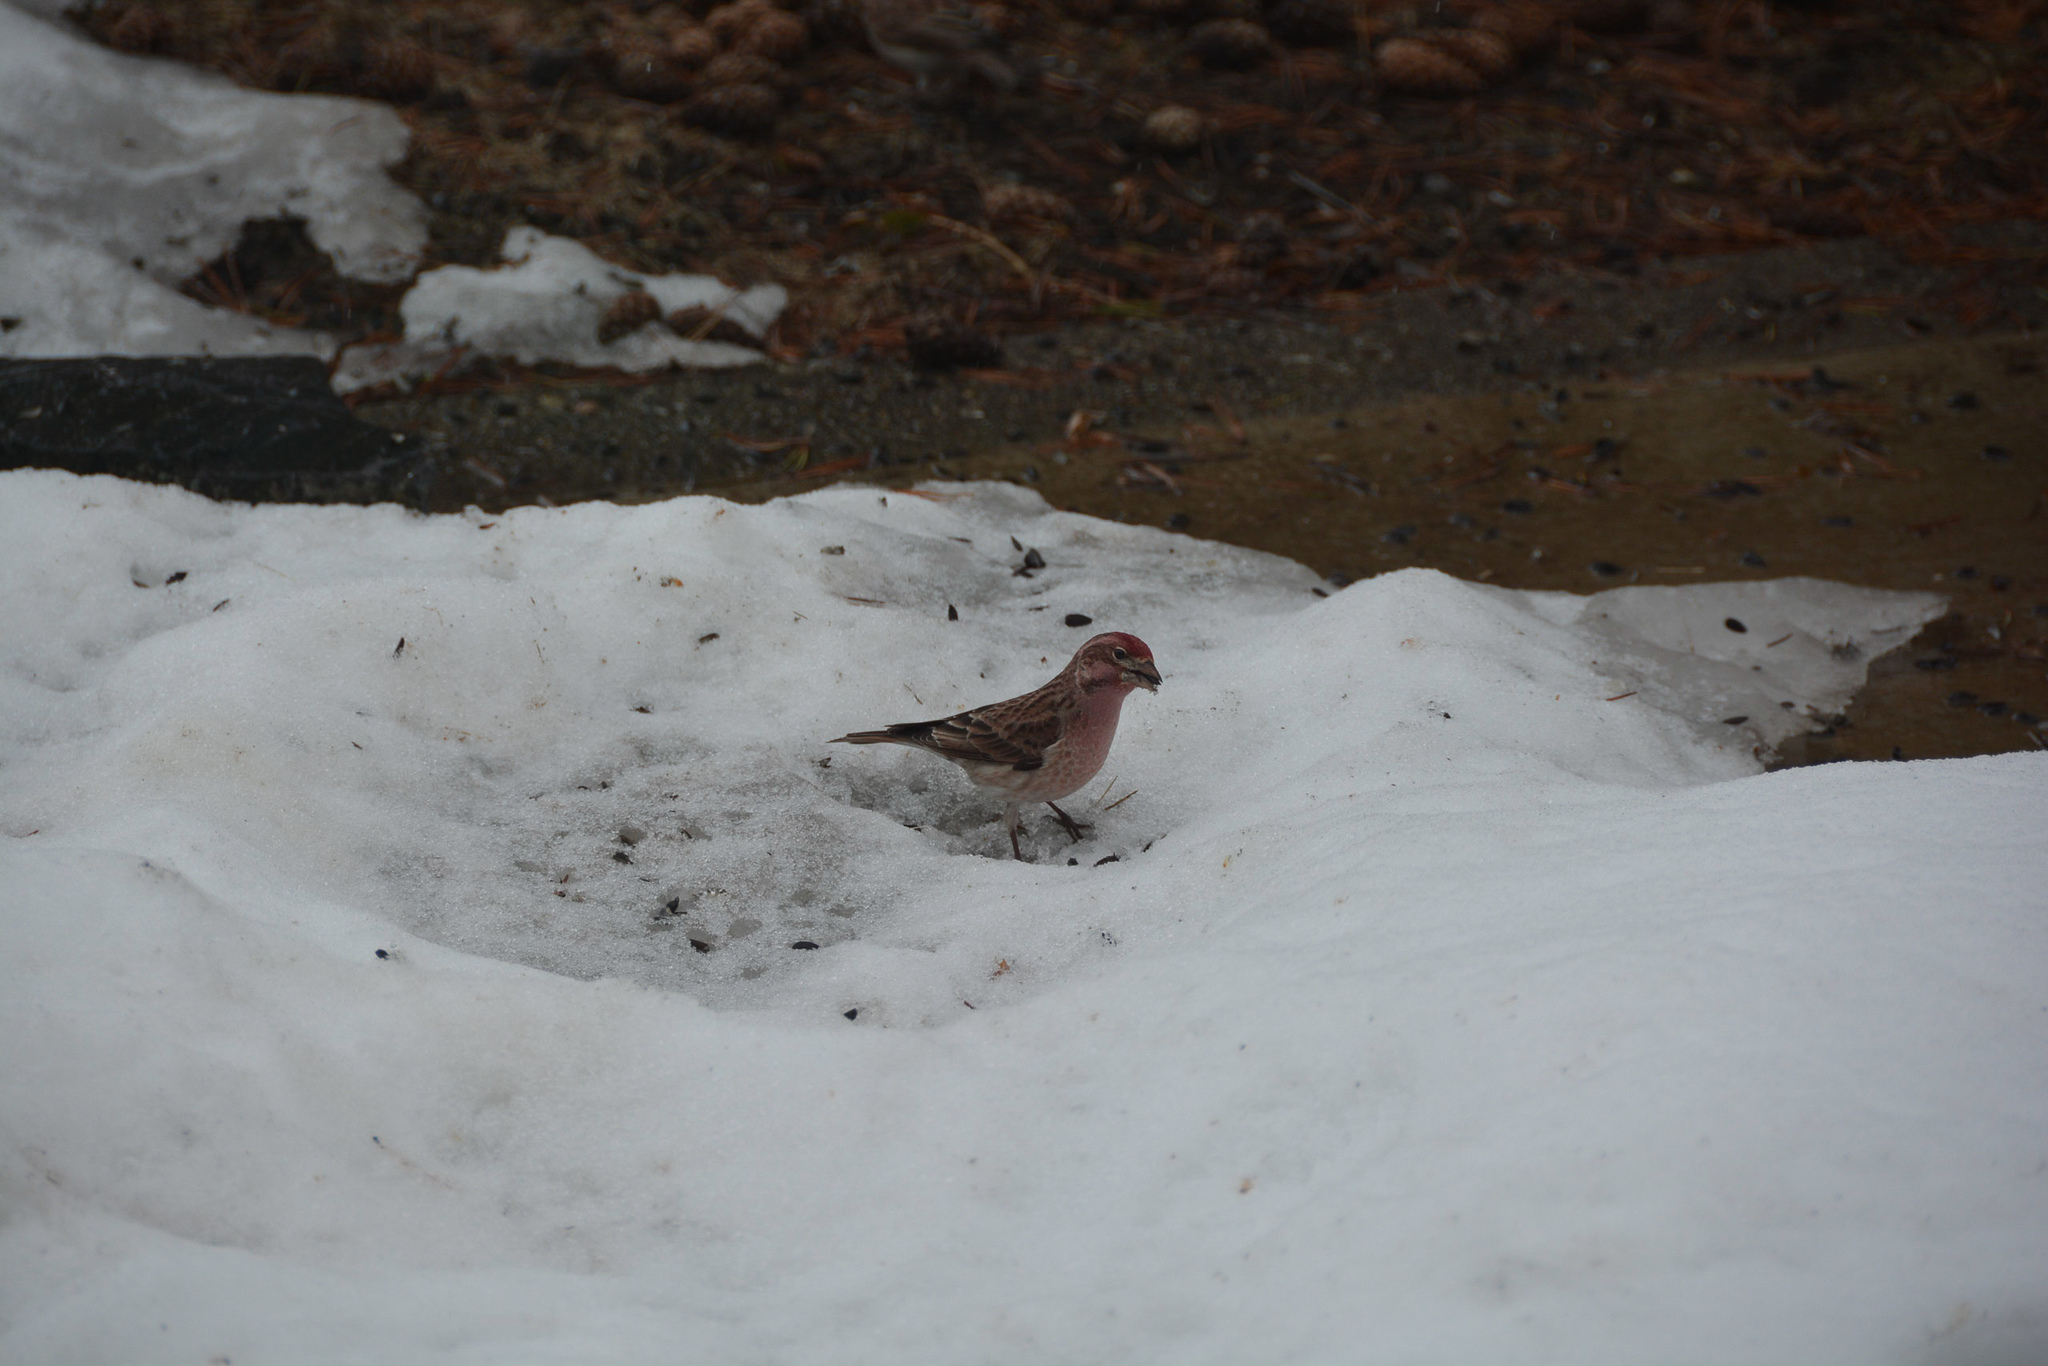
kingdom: Animalia
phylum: Chordata
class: Aves
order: Passeriformes
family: Fringillidae
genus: Haemorhous
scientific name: Haemorhous cassinii
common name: Cassin's finch
